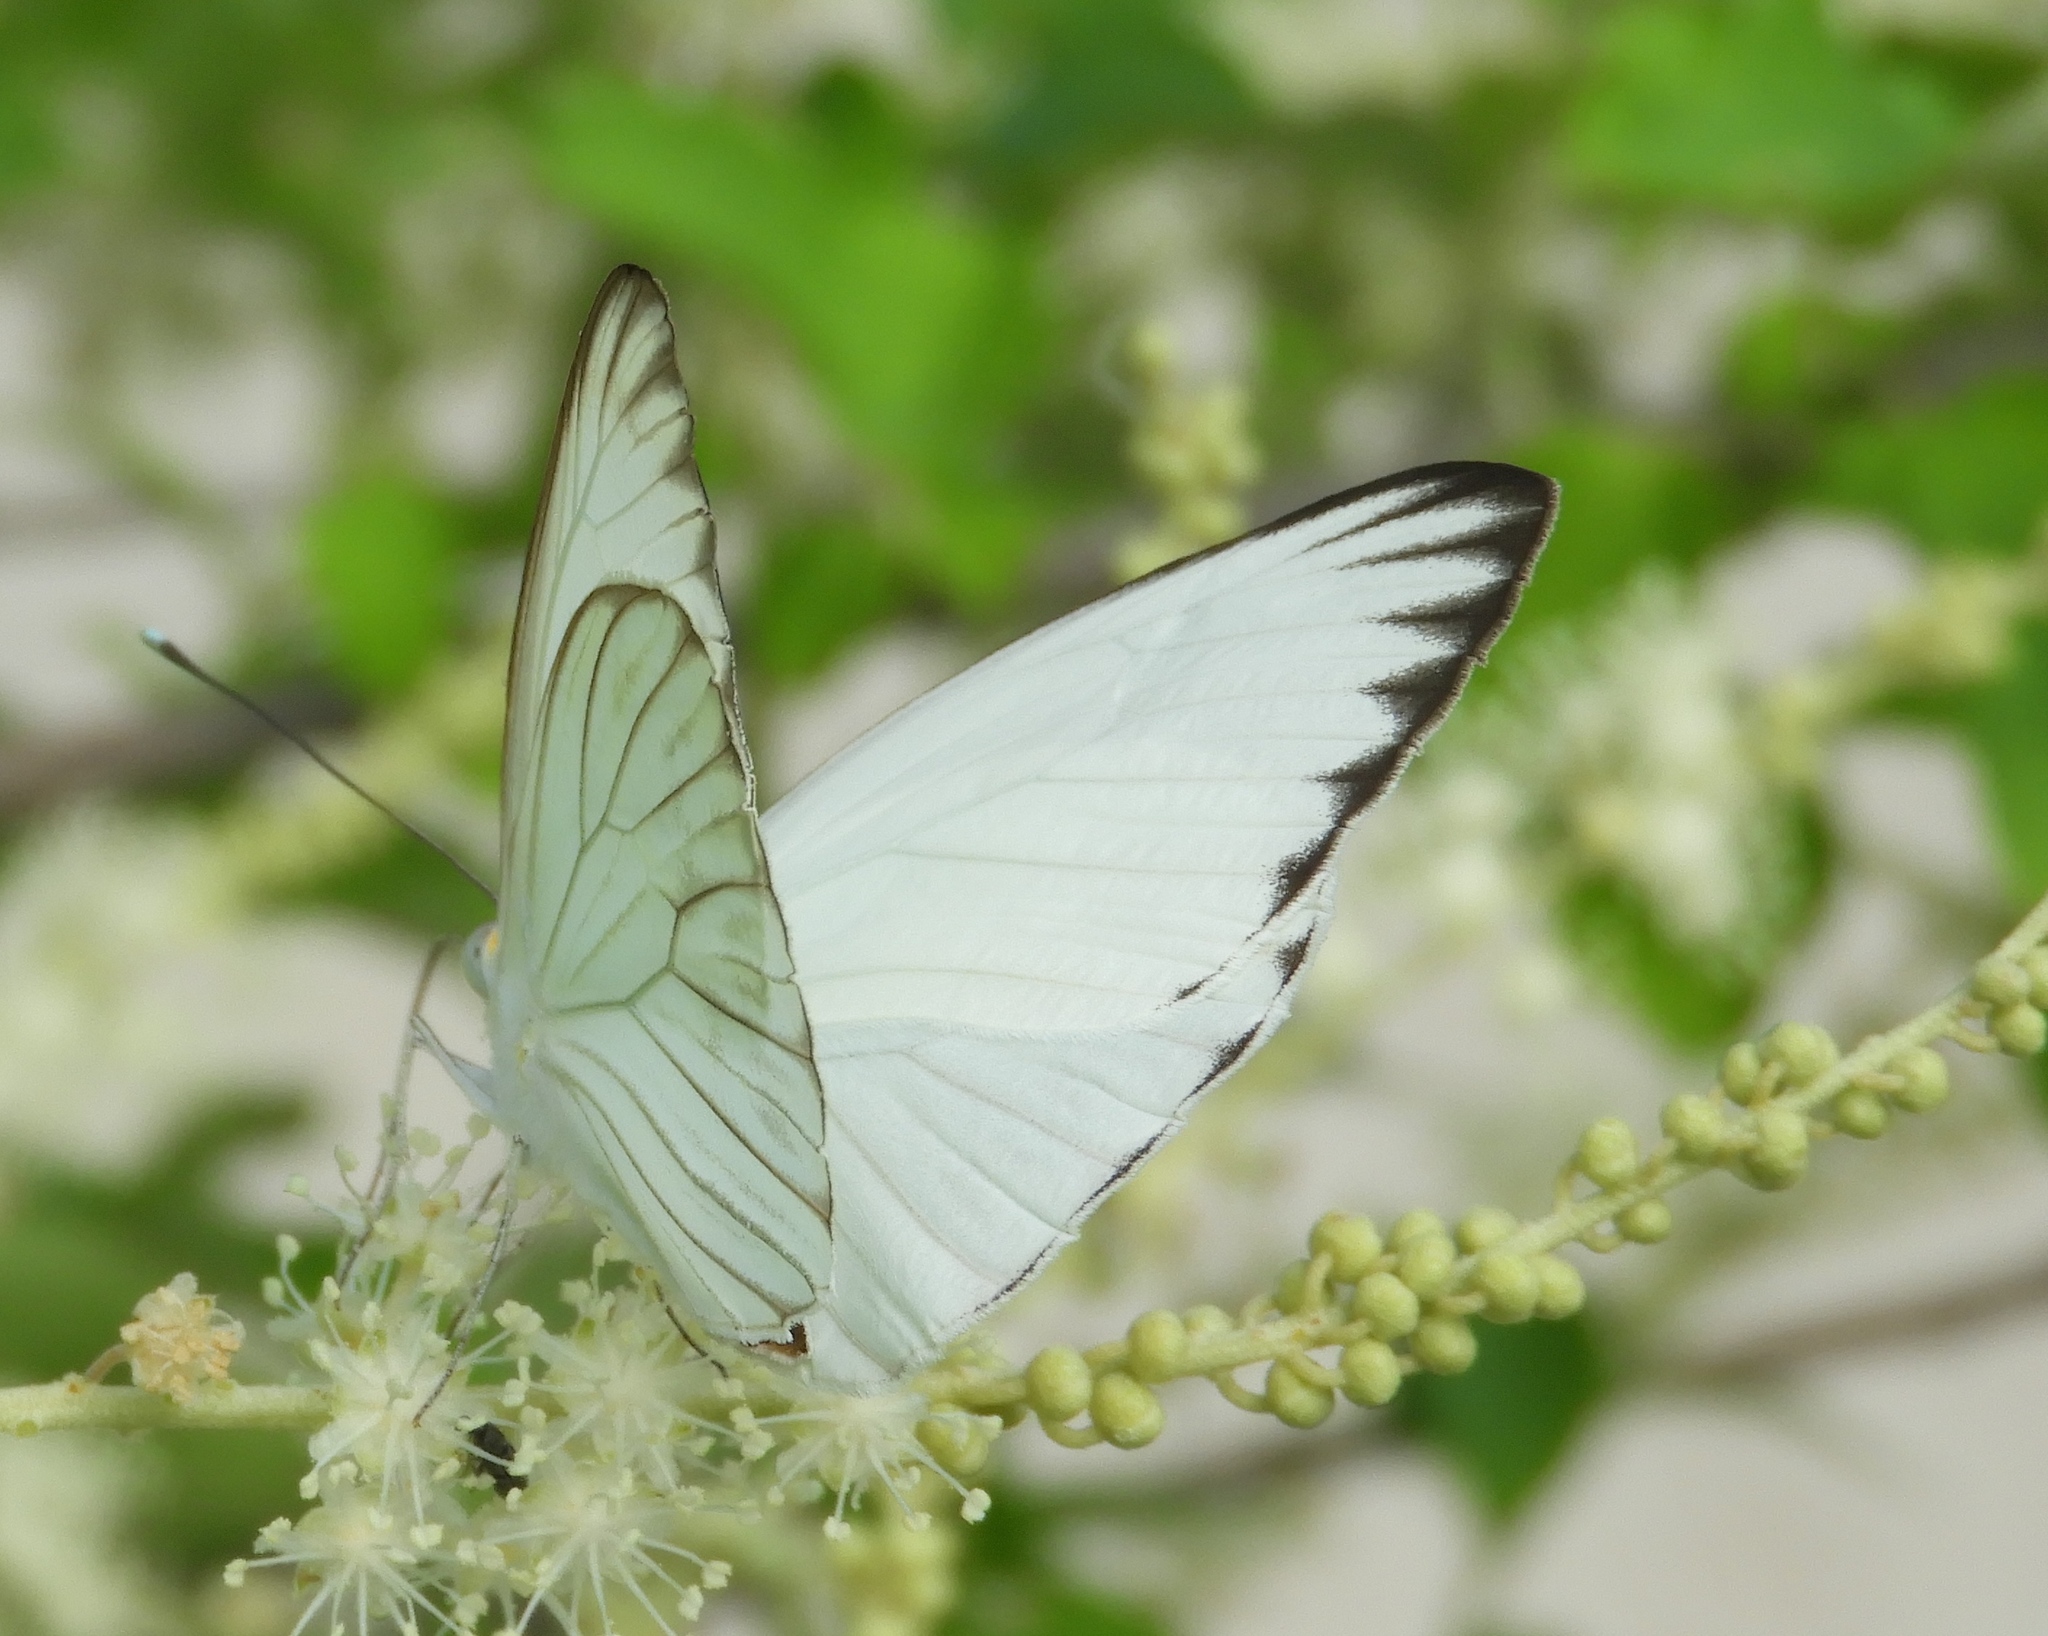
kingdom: Animalia
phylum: Arthropoda
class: Insecta
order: Lepidoptera
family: Pieridae
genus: Ascia
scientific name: Ascia monuste
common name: Great southern white
